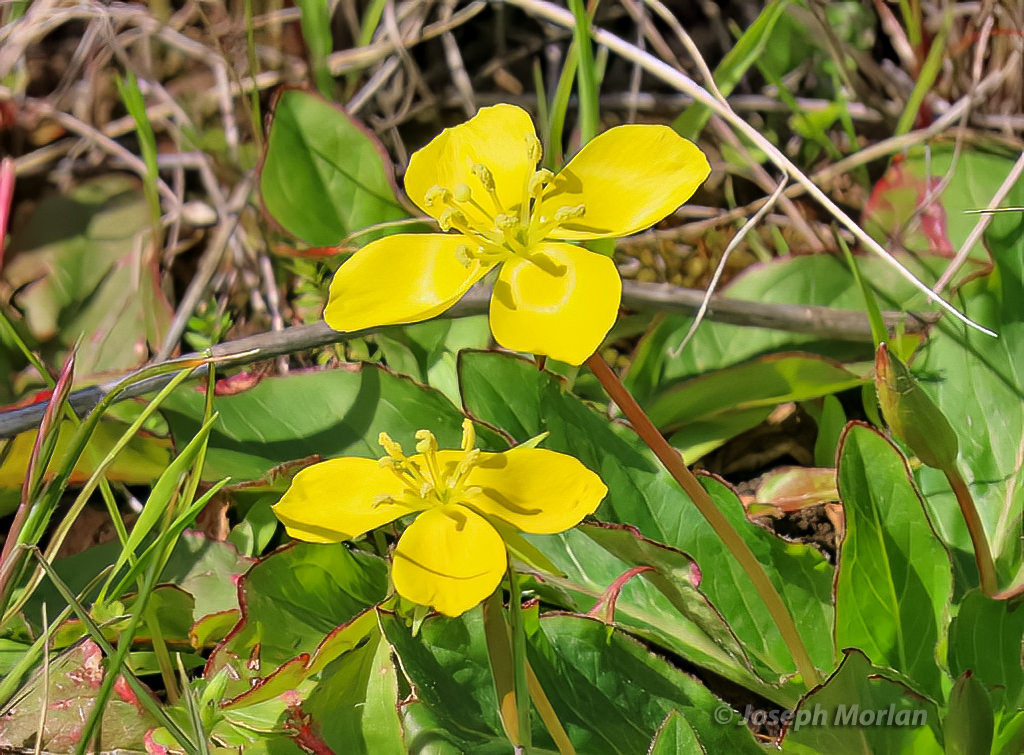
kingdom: Plantae
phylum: Tracheophyta
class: Magnoliopsida
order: Myrtales
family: Onagraceae
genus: Taraxia
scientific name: Taraxia ovata
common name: Goldeneggs
